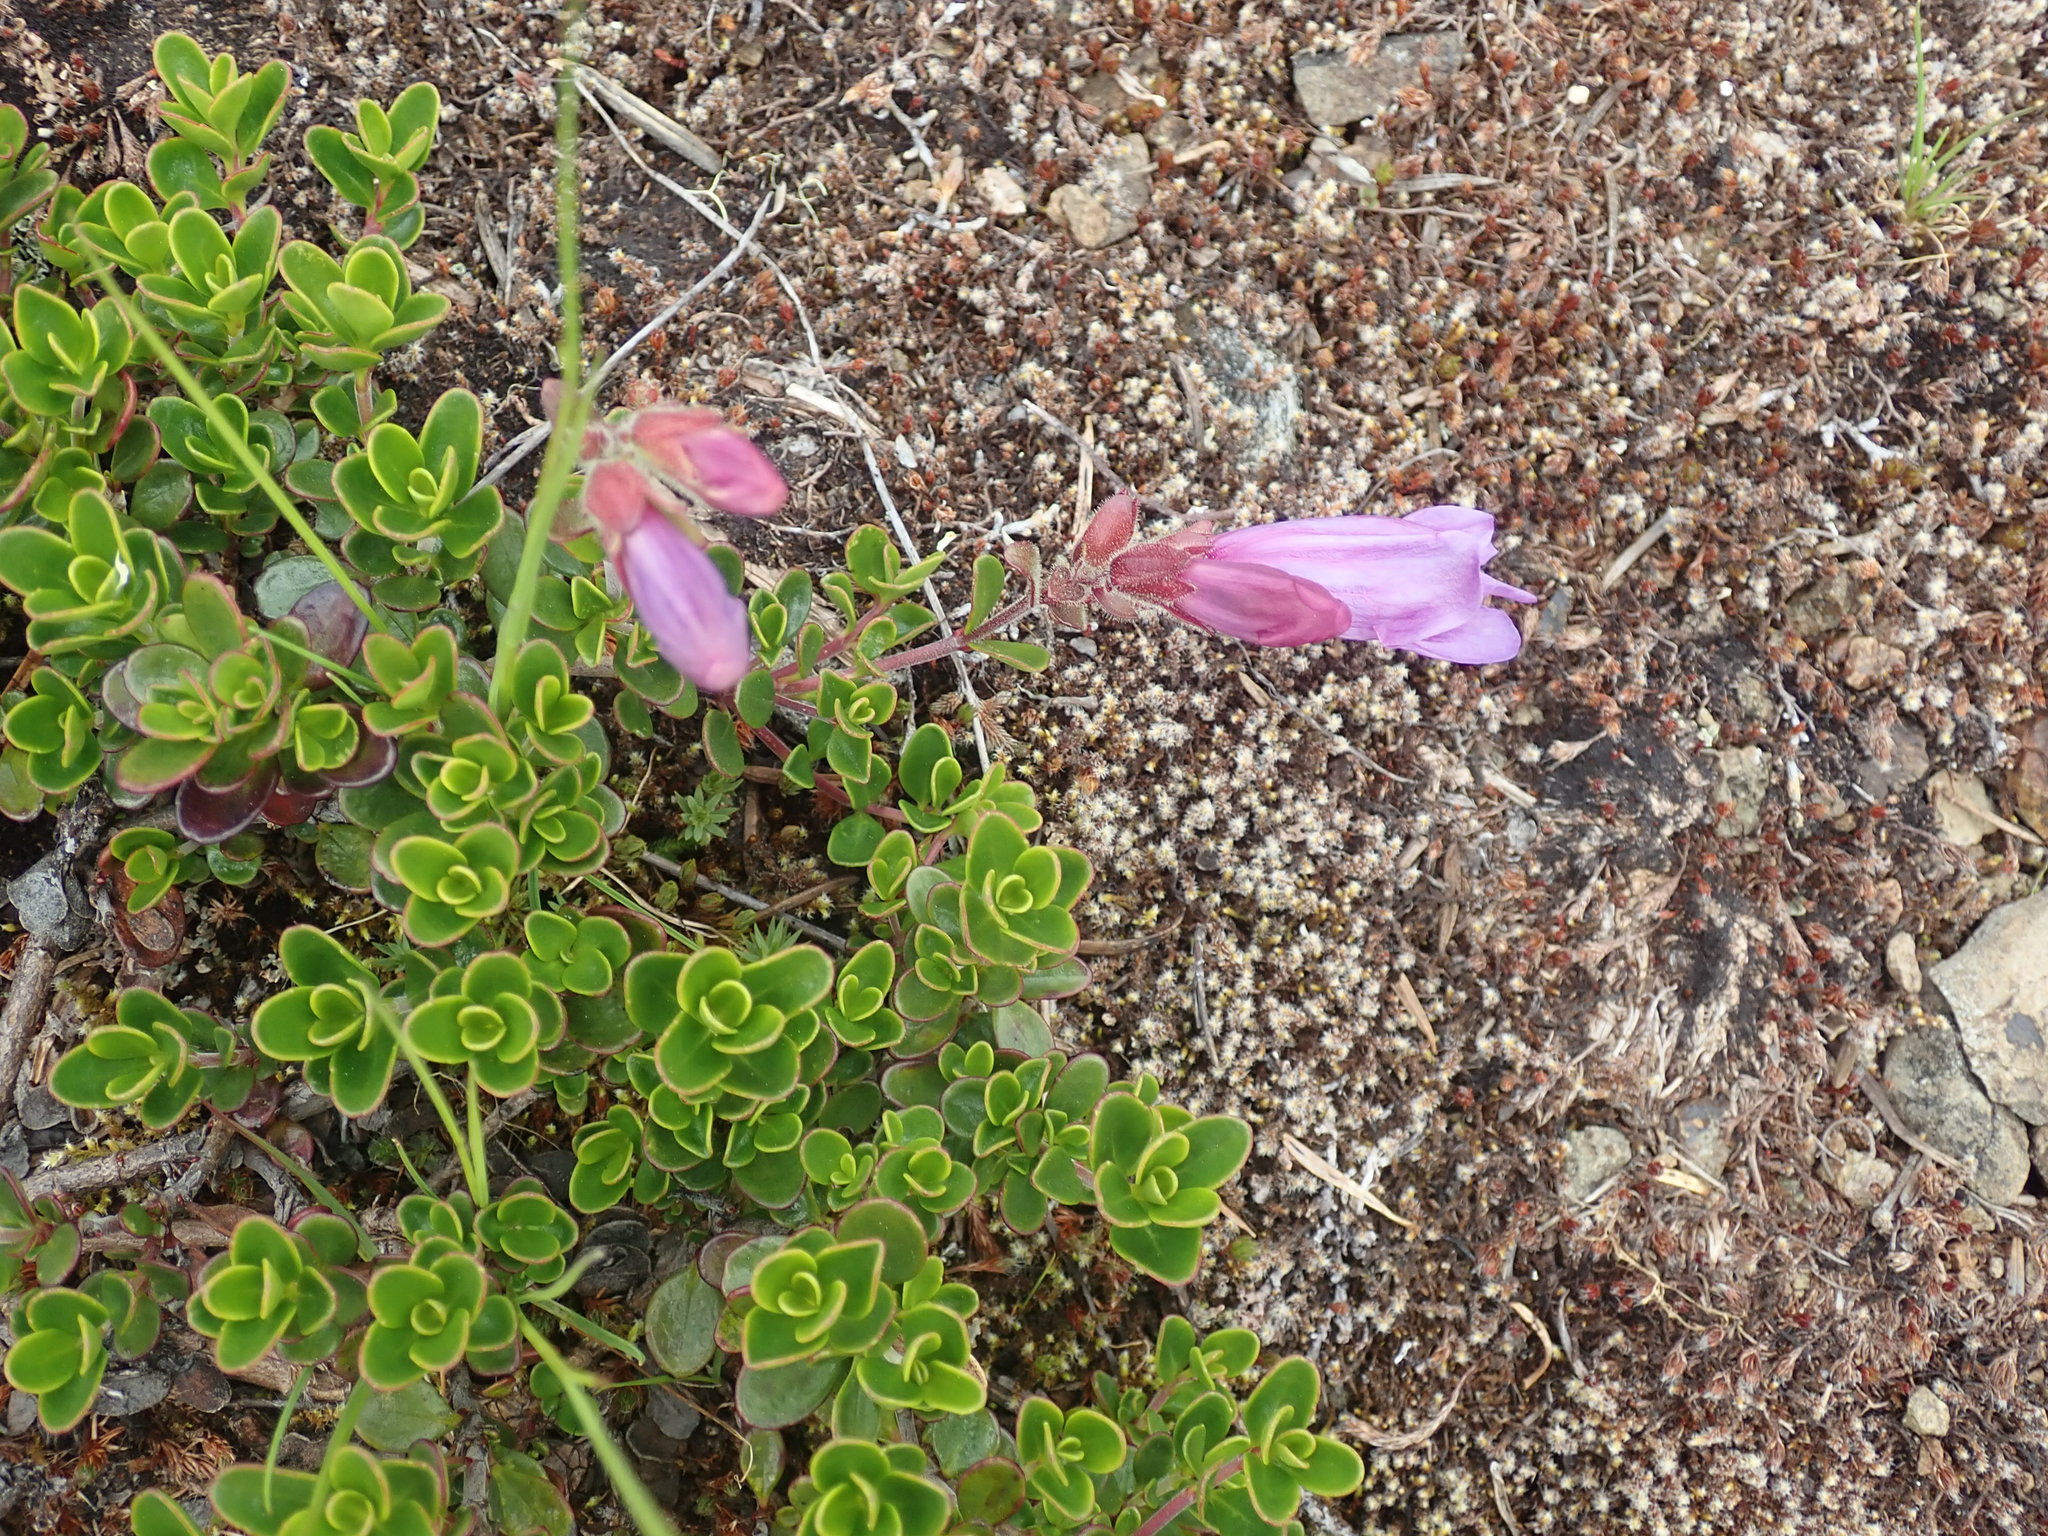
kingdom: Plantae
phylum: Tracheophyta
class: Magnoliopsida
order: Lamiales
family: Plantaginaceae
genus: Penstemon
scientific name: Penstemon davidsonii
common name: Davidson's penstemon
